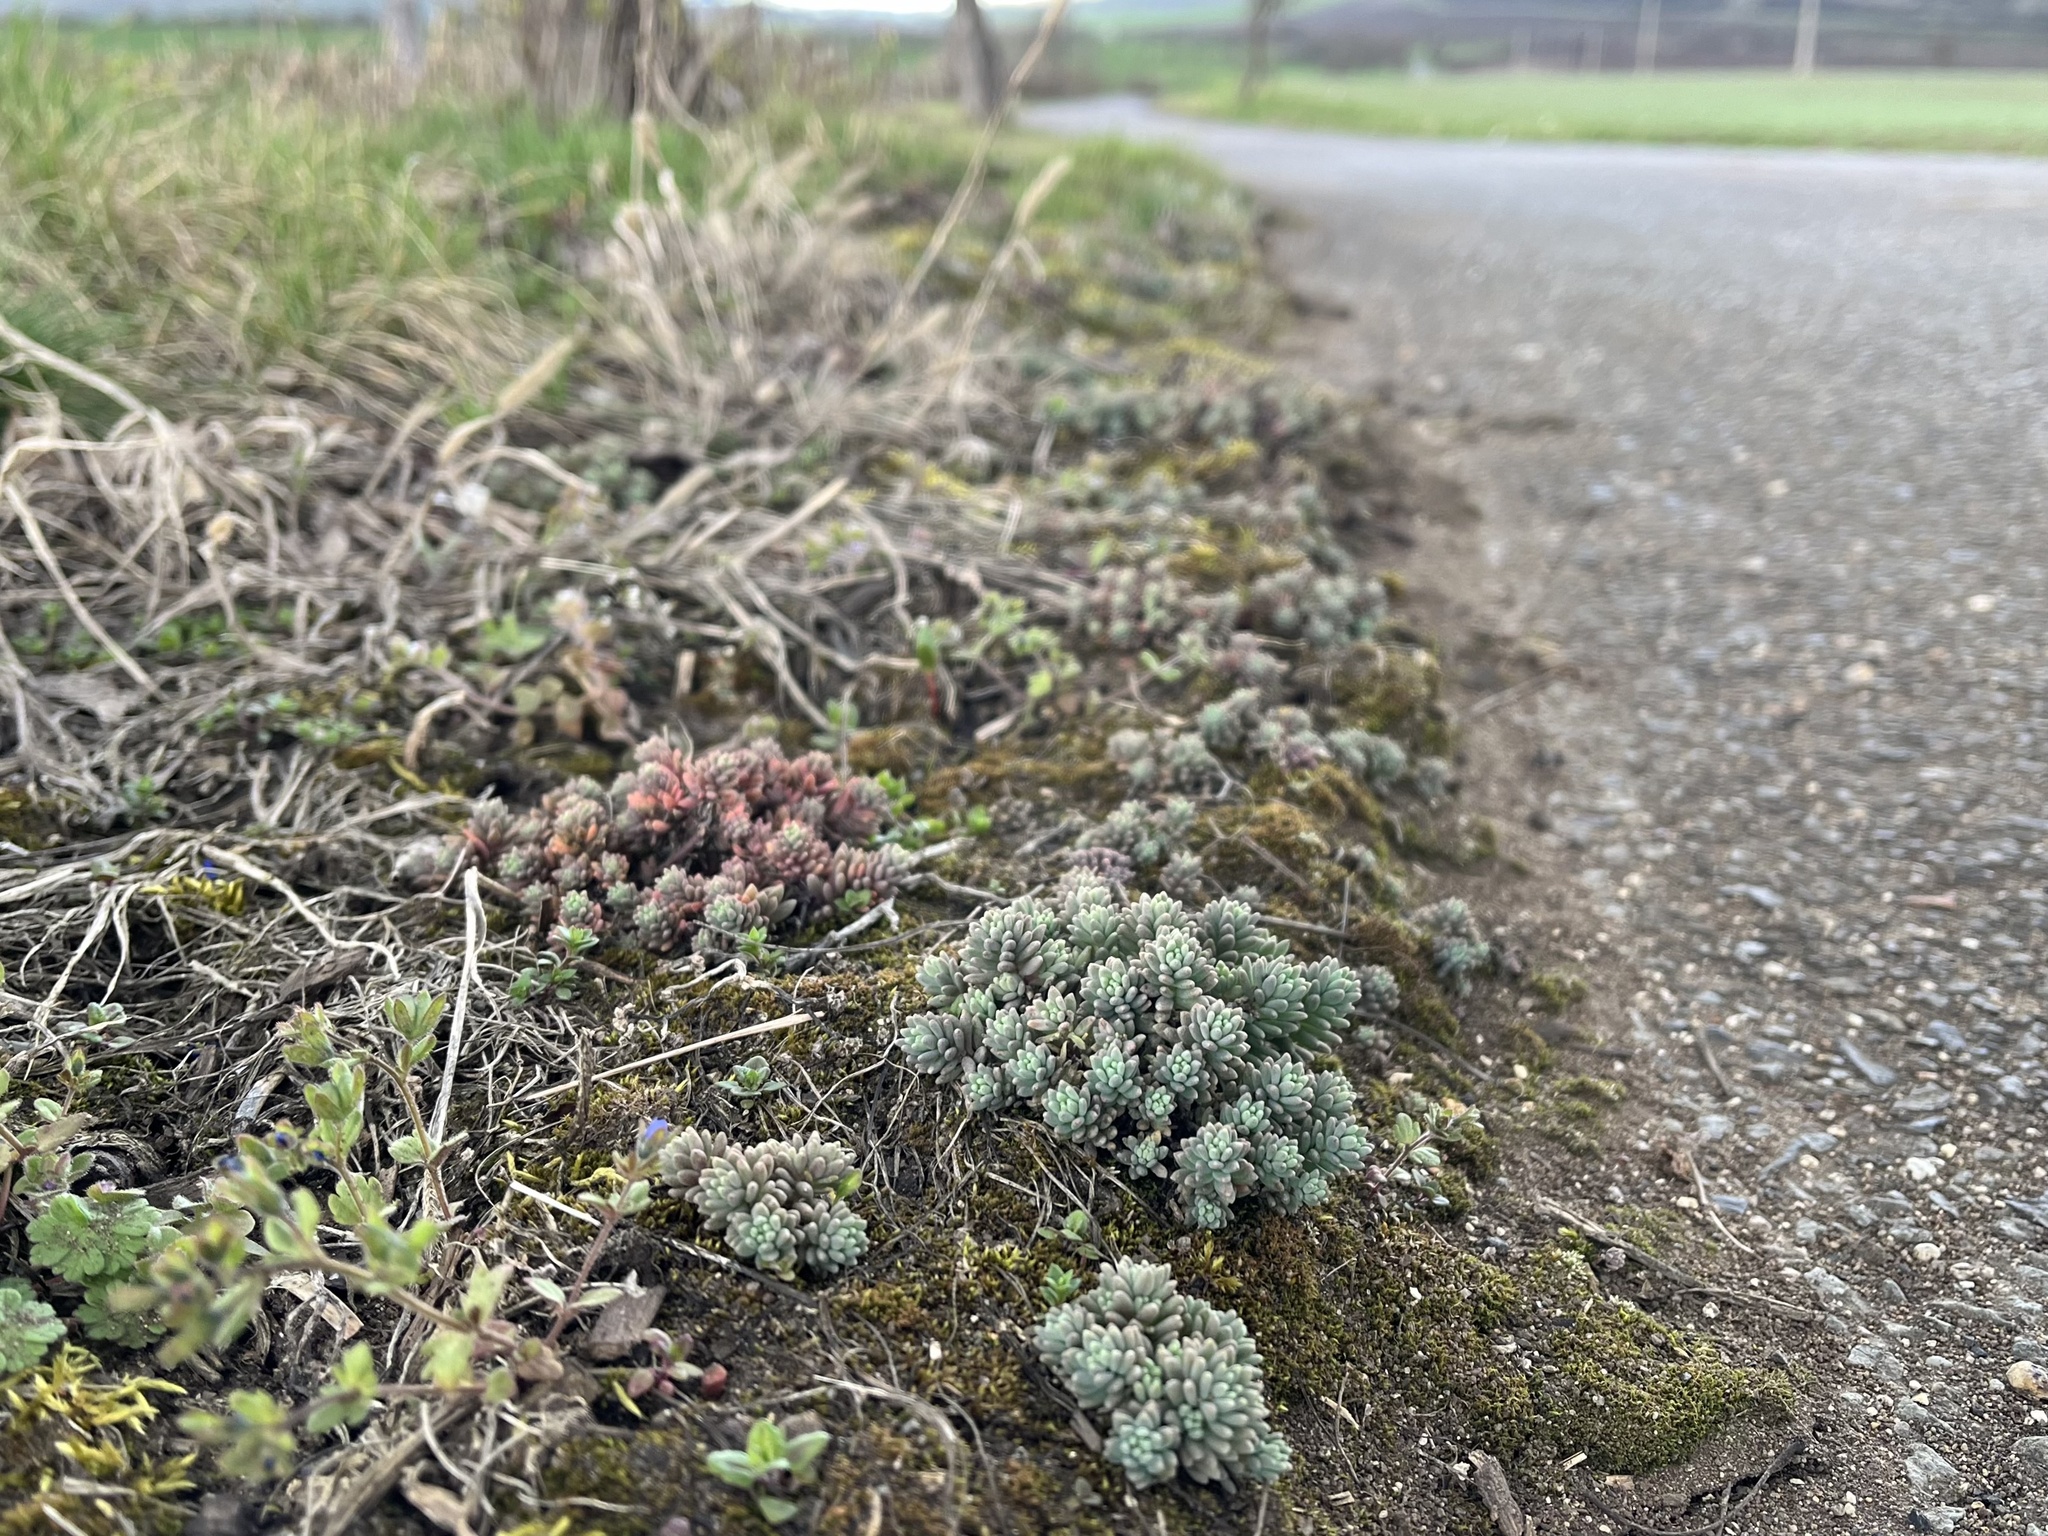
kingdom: Plantae
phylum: Tracheophyta
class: Magnoliopsida
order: Saxifragales
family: Crassulaceae
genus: Sedum
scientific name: Sedum hispanicum
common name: Spanish stonecrop
